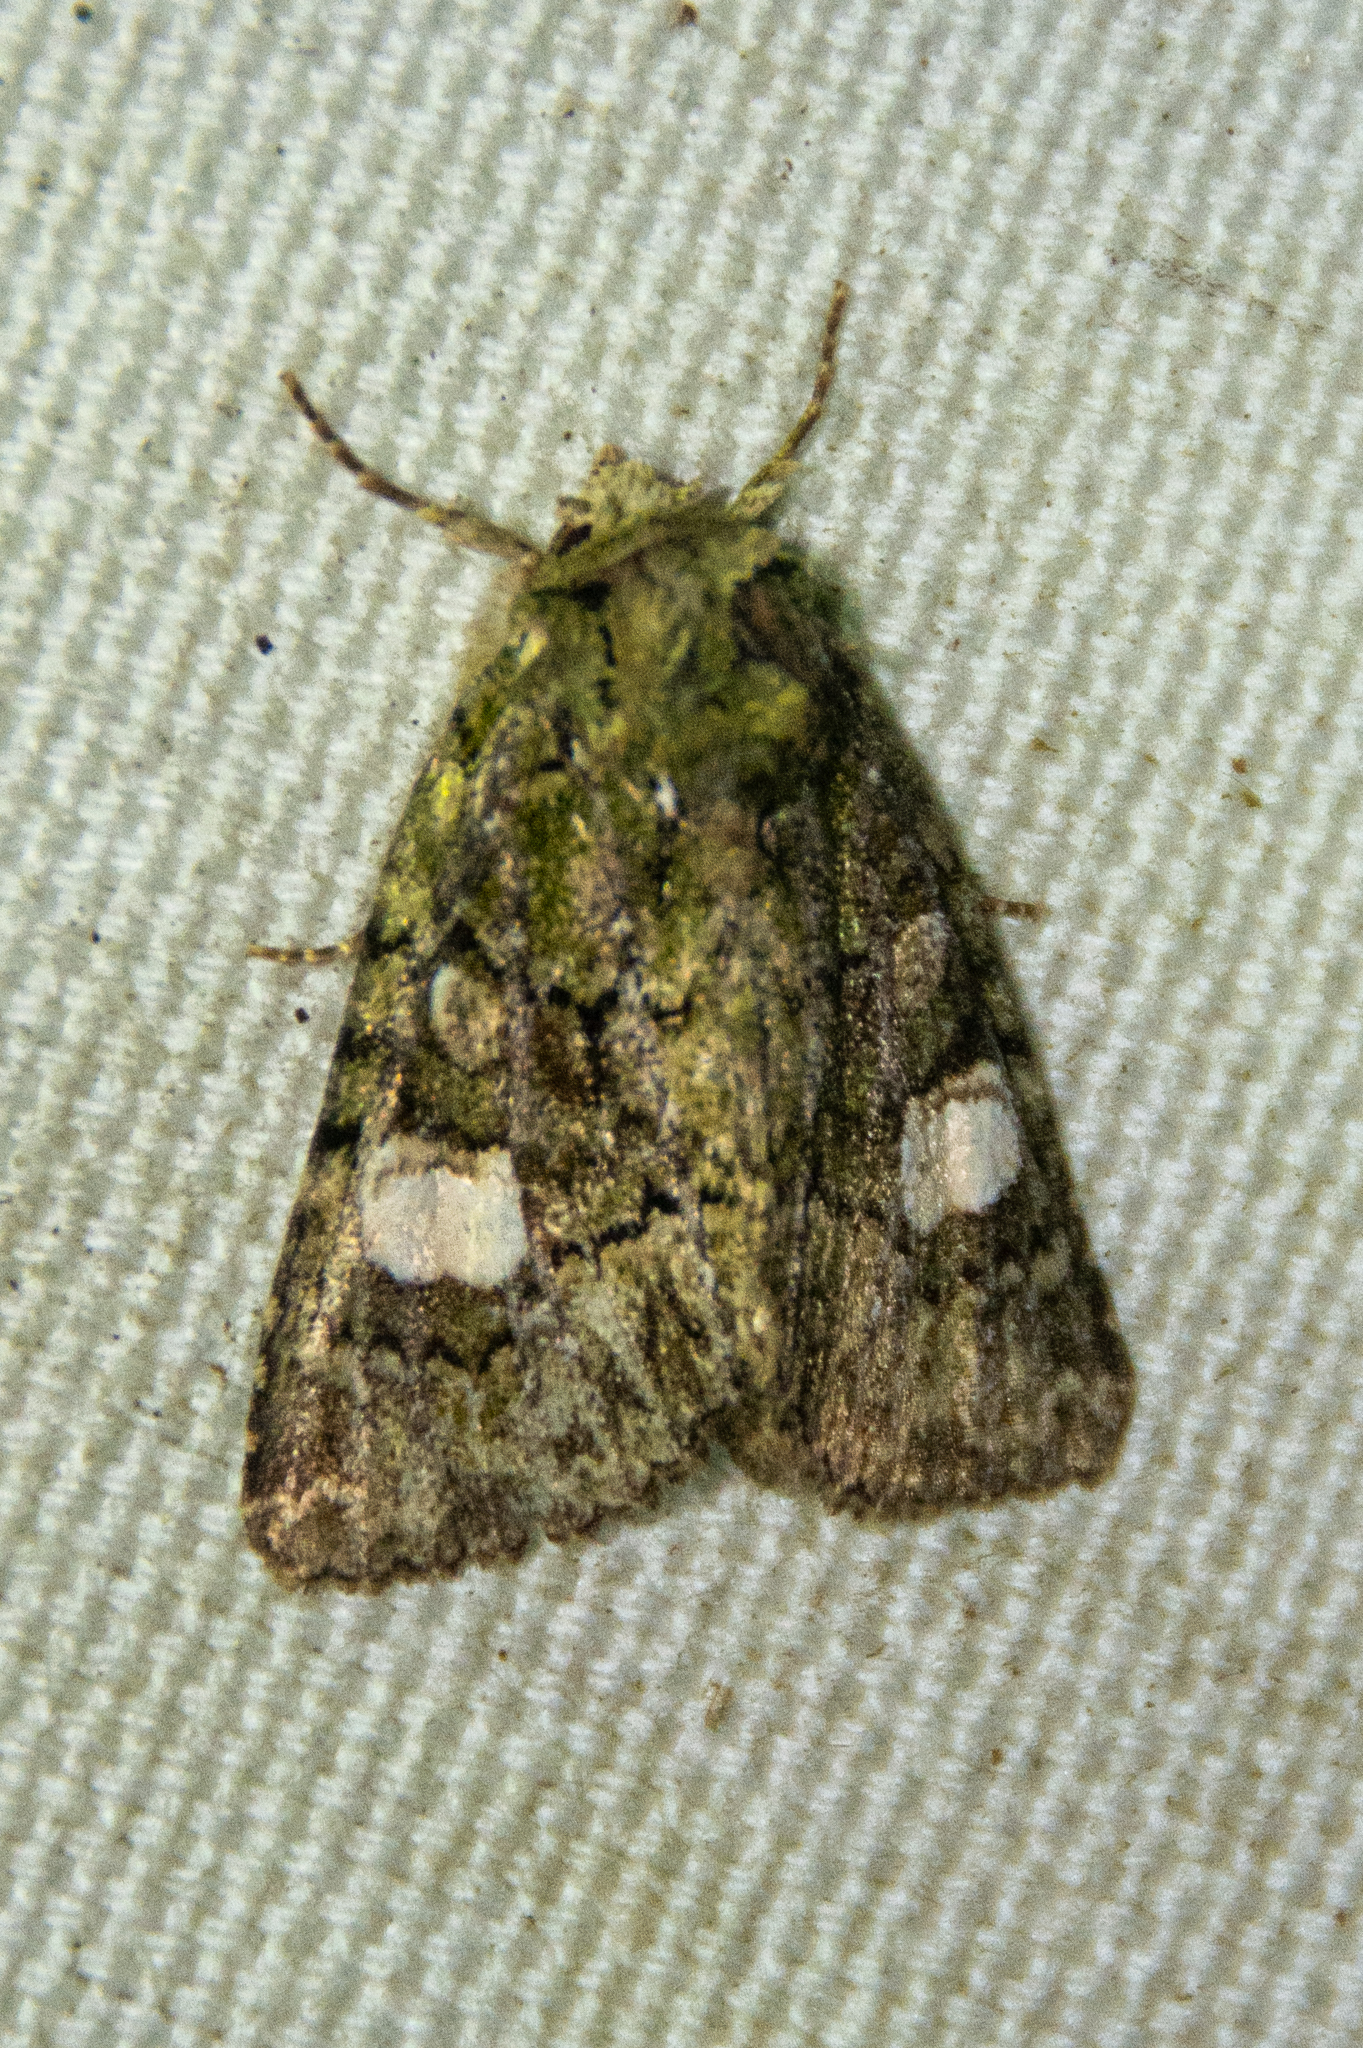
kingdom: Animalia
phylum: Arthropoda
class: Insecta
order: Lepidoptera
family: Noctuidae
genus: Phosphila
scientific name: Phosphila miselioides
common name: Spotted phosphila moth
